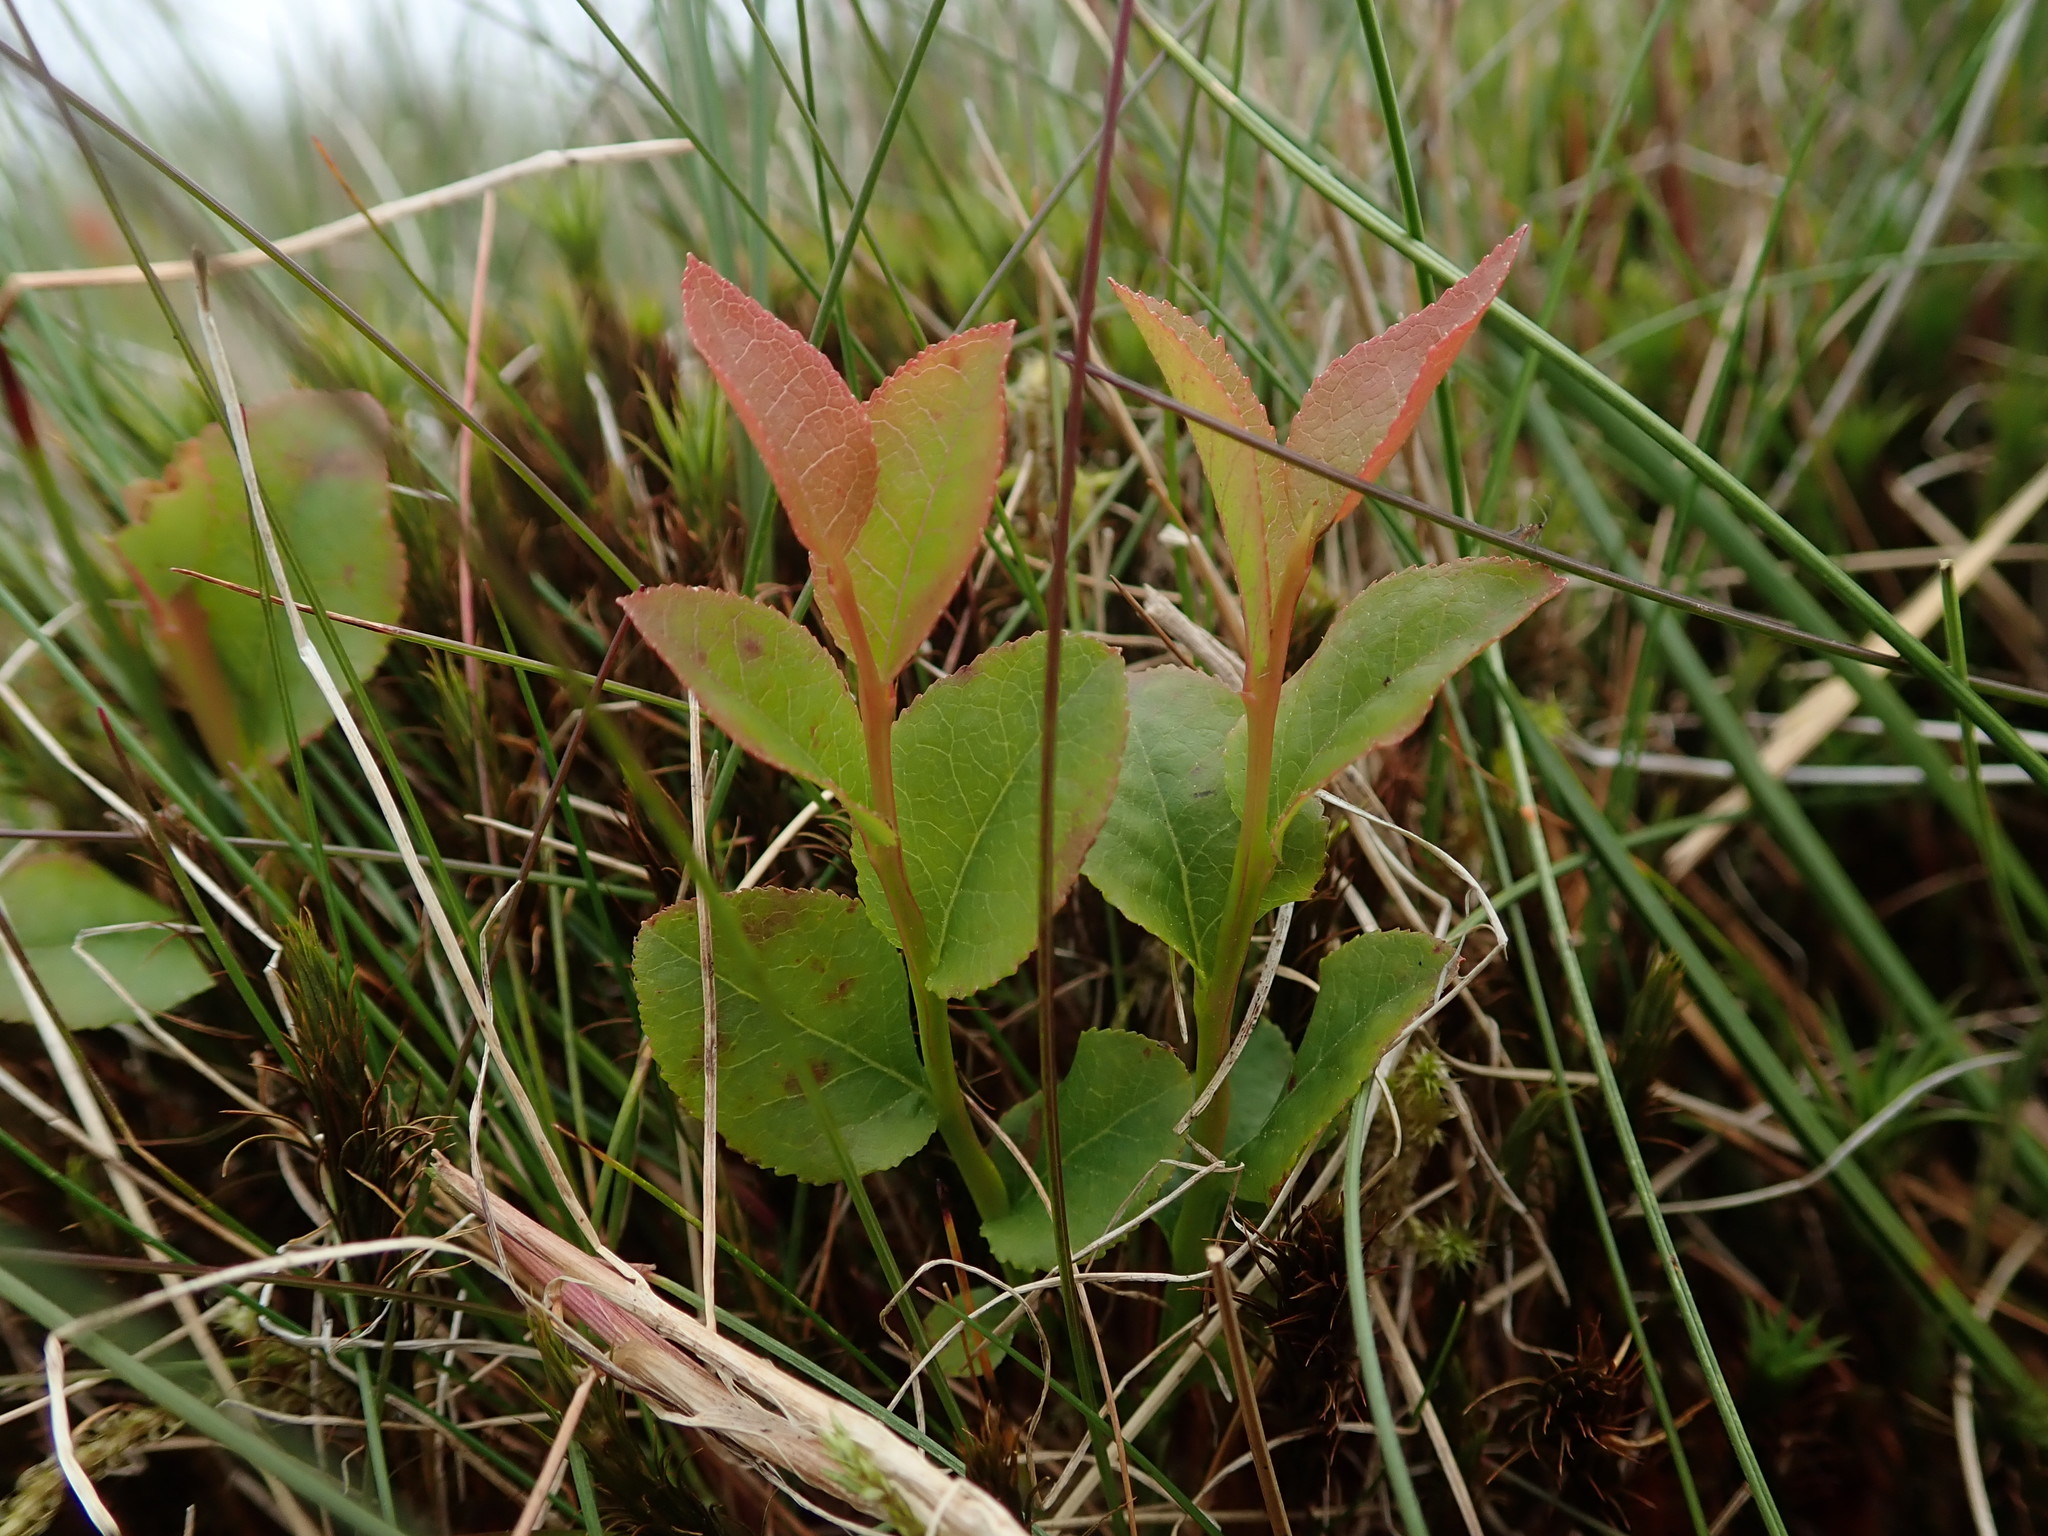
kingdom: Plantae
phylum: Tracheophyta
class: Magnoliopsida
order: Ericales
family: Ericaceae
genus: Vaccinium
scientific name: Vaccinium myrtillus
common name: Bilberry
